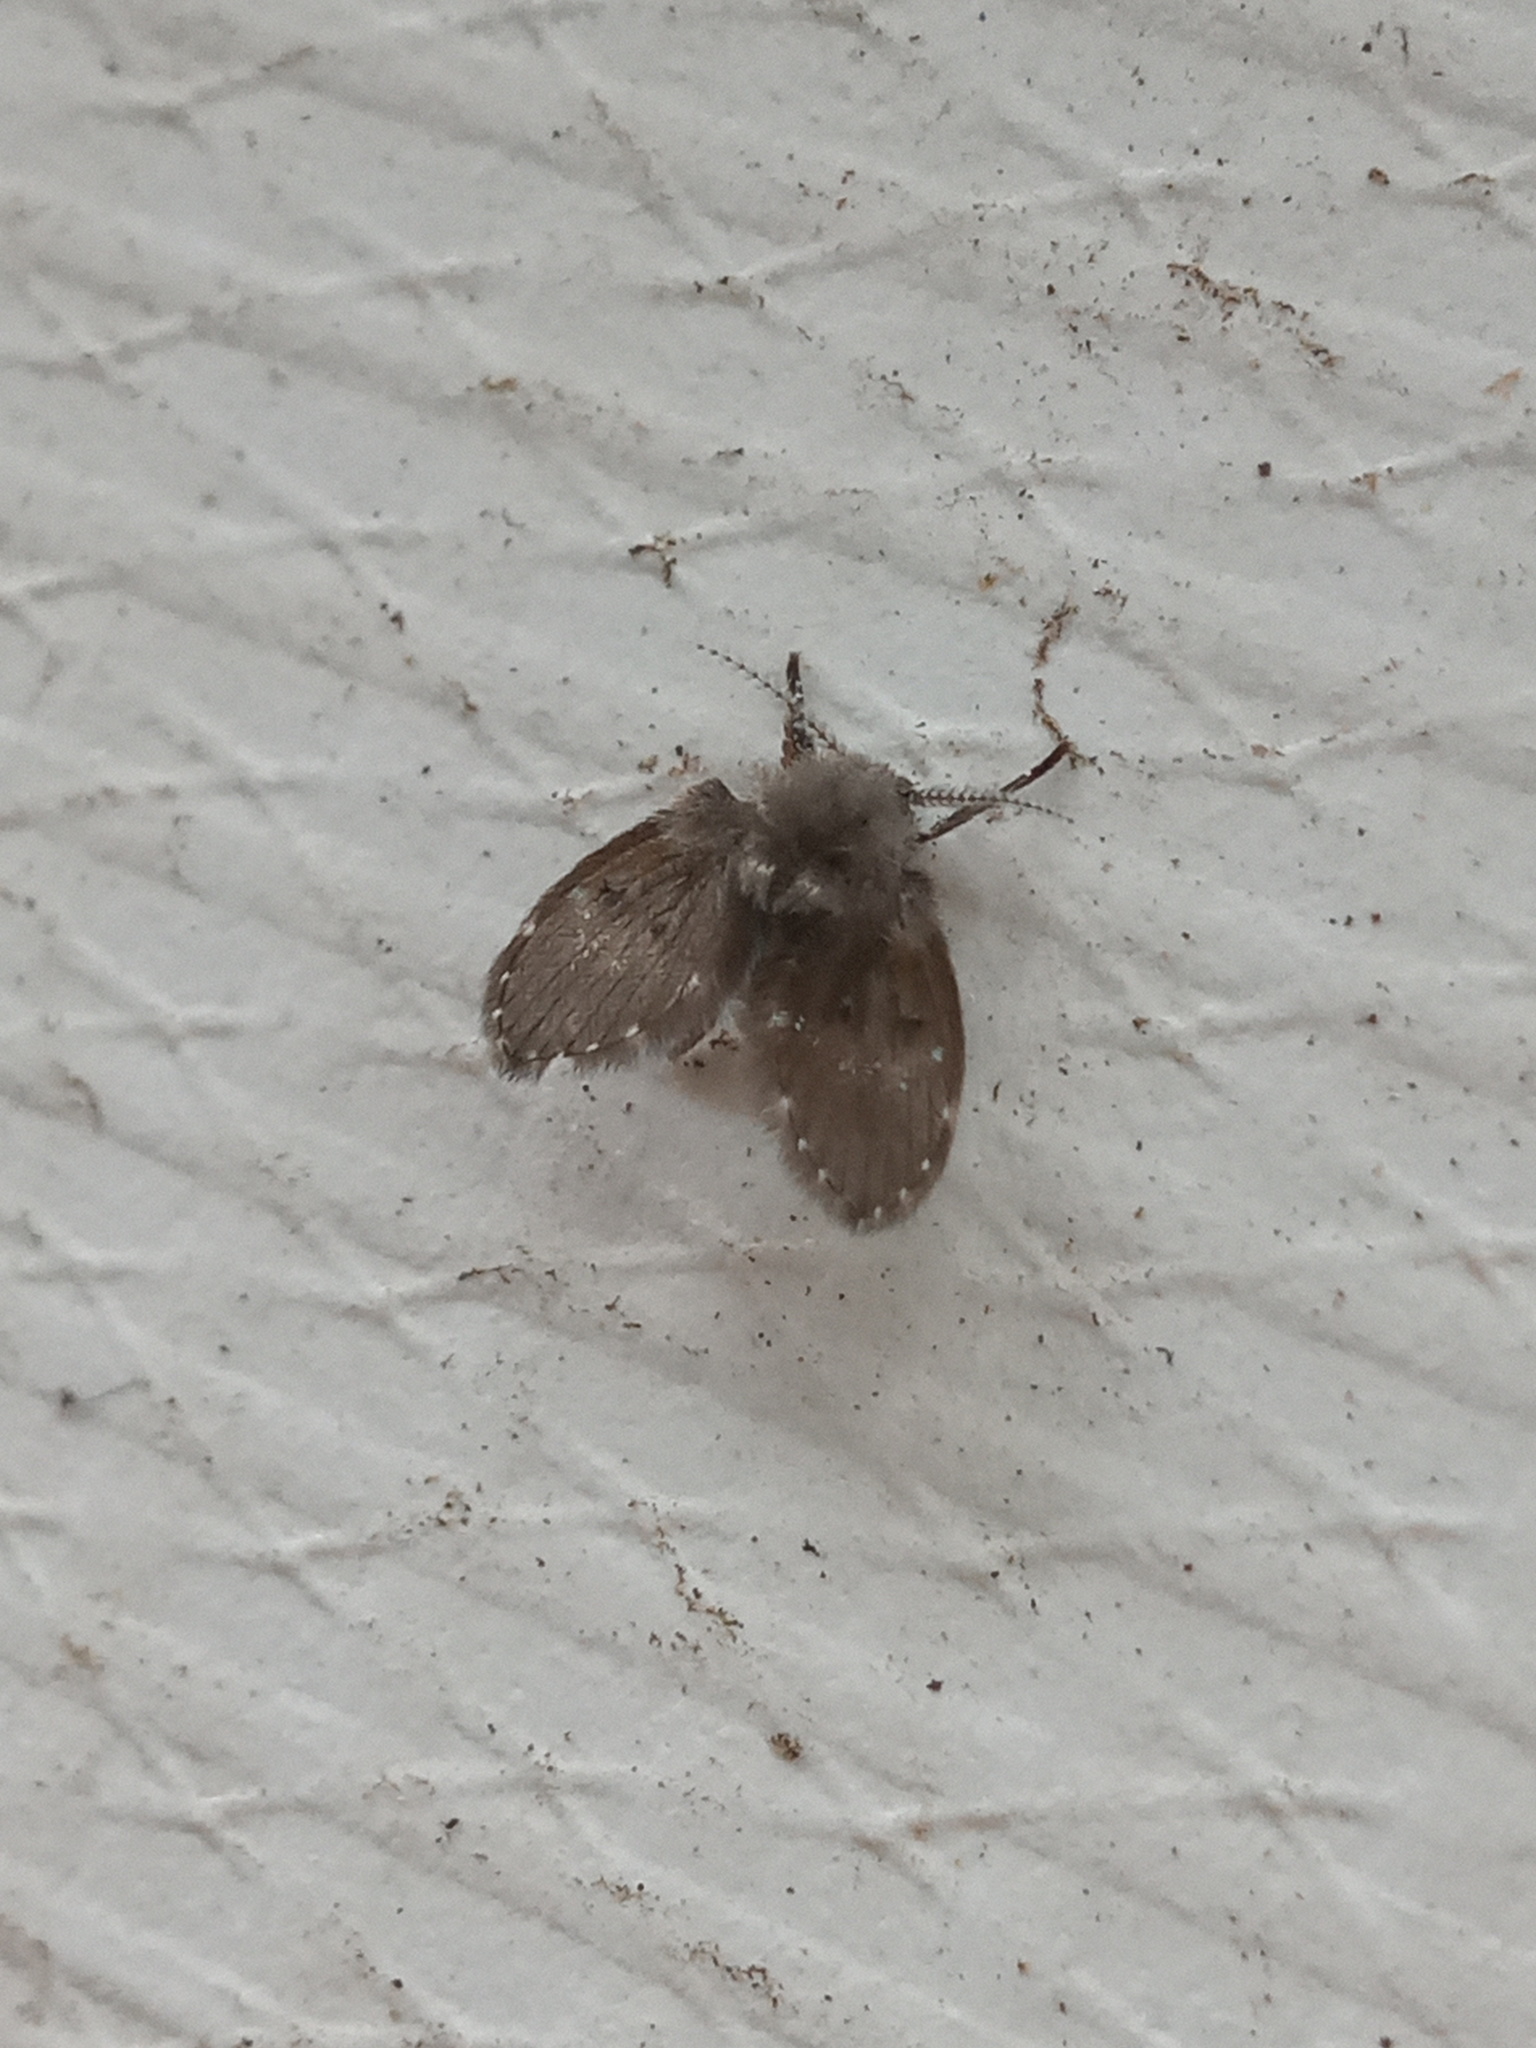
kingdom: Animalia
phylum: Arthropoda
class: Insecta
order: Diptera
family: Psychodidae
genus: Clogmia
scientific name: Clogmia albipunctatus
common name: White-spotted moth fly
